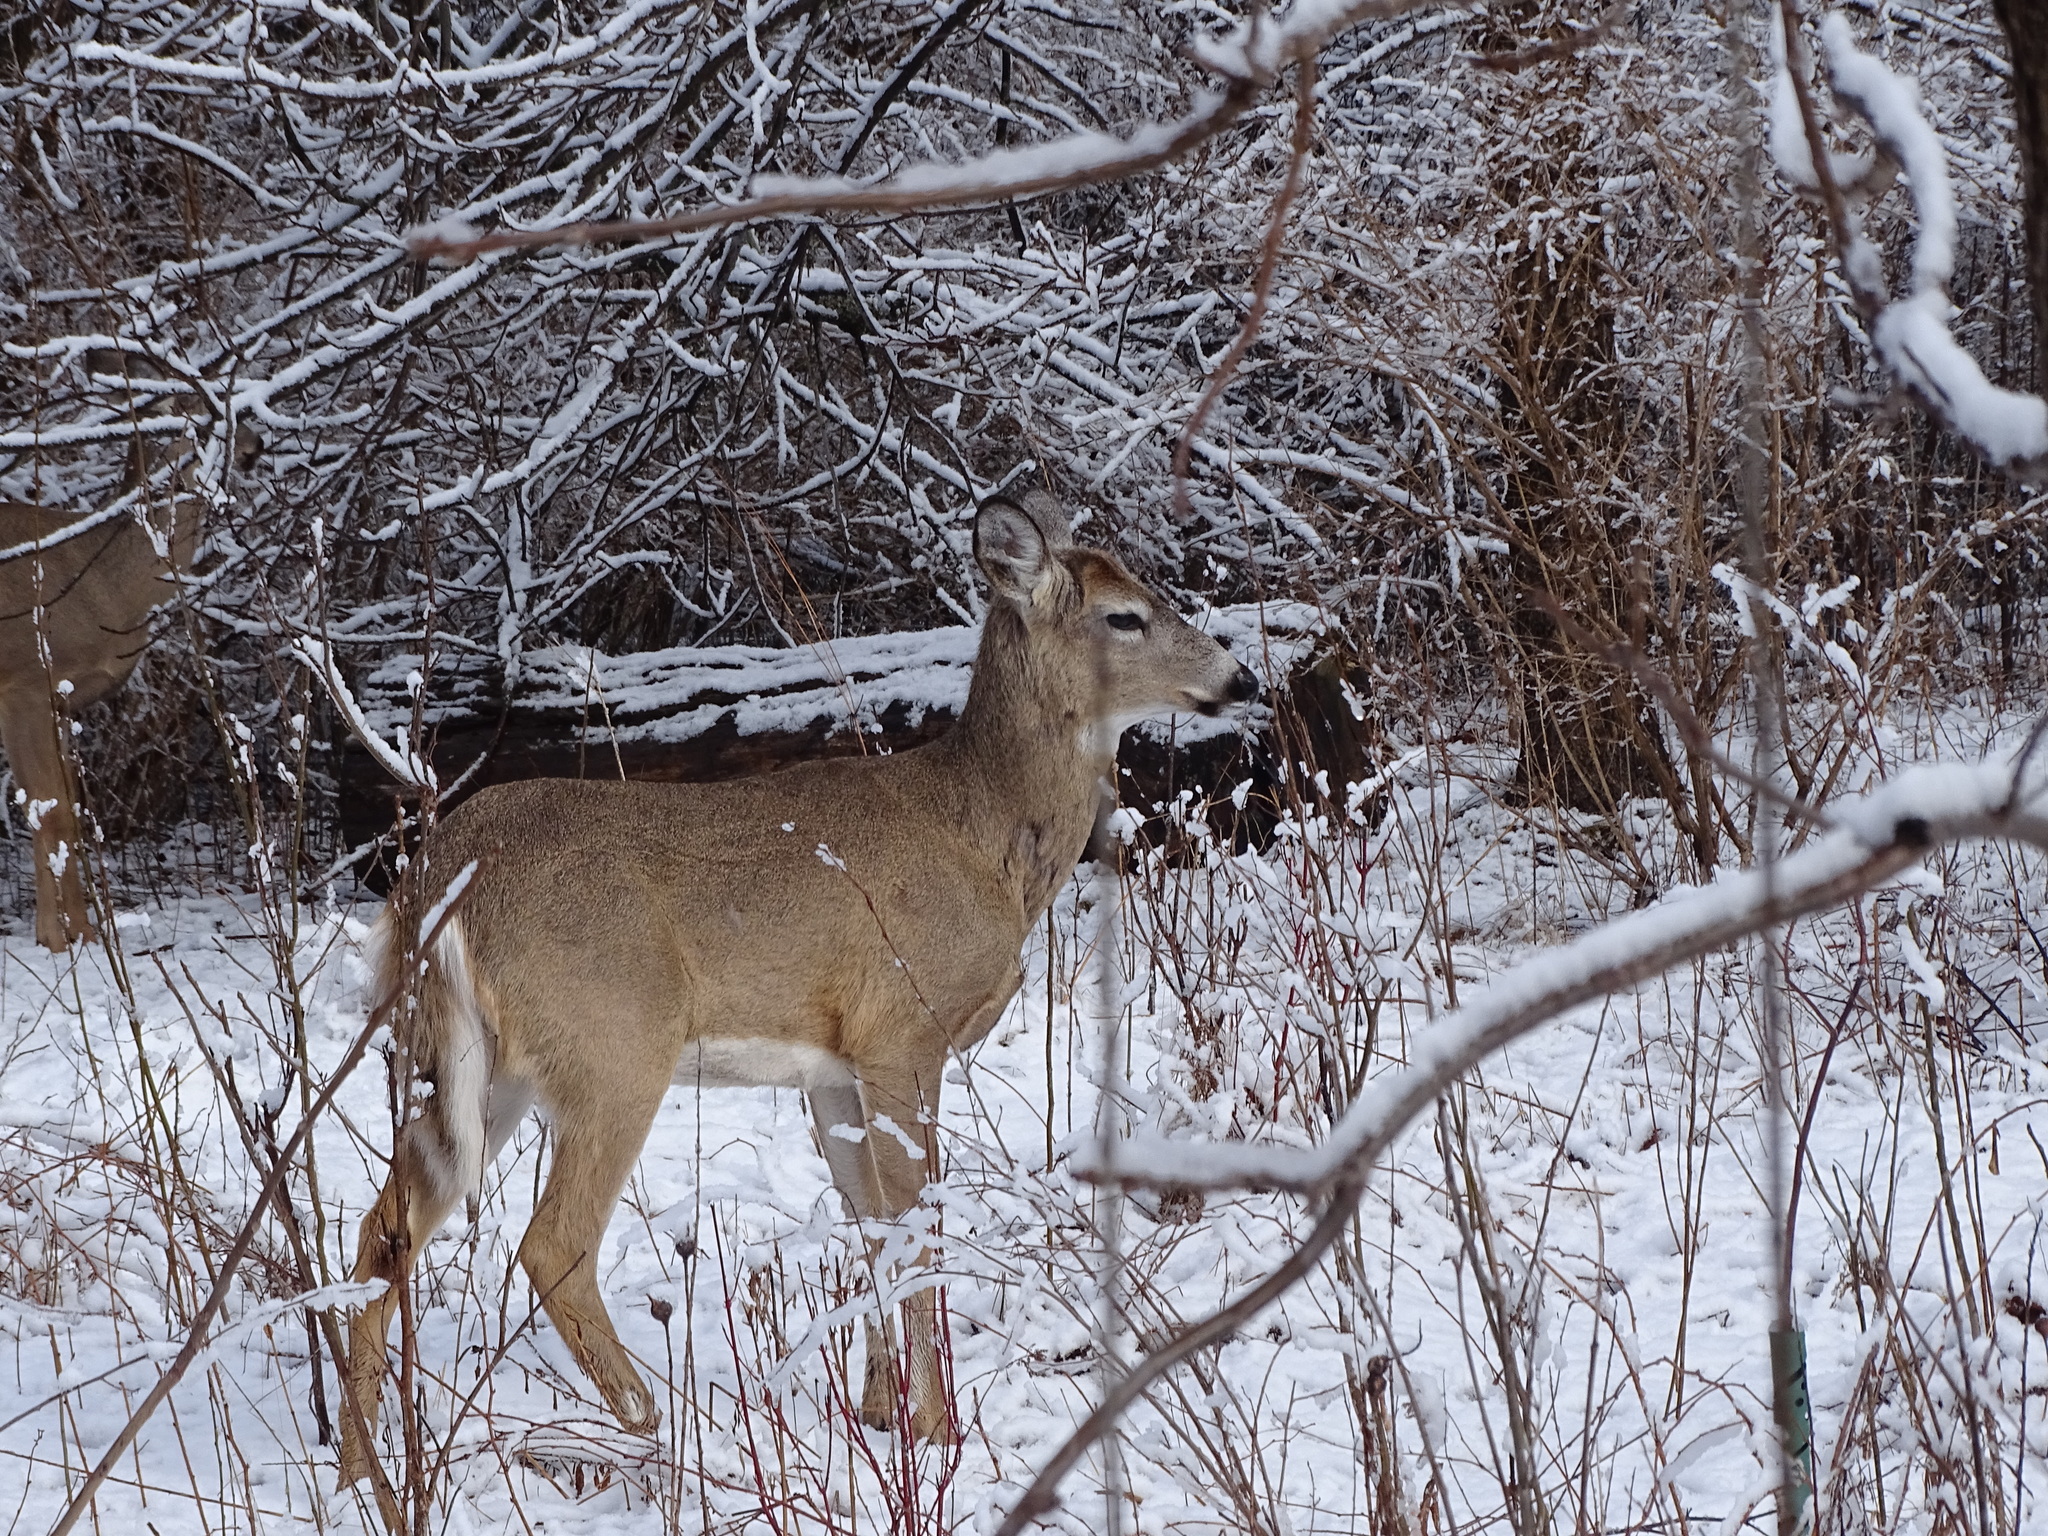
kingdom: Animalia
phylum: Chordata
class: Mammalia
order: Artiodactyla
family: Cervidae
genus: Odocoileus
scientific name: Odocoileus virginianus
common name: White-tailed deer
